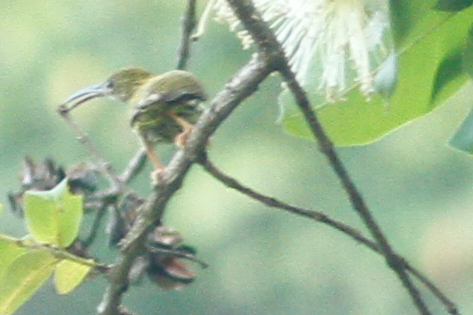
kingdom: Animalia
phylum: Chordata
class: Aves
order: Passeriformes
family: Nectariniidae
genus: Arachnothera
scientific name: Arachnothera magna
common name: Streaked spiderhunter
